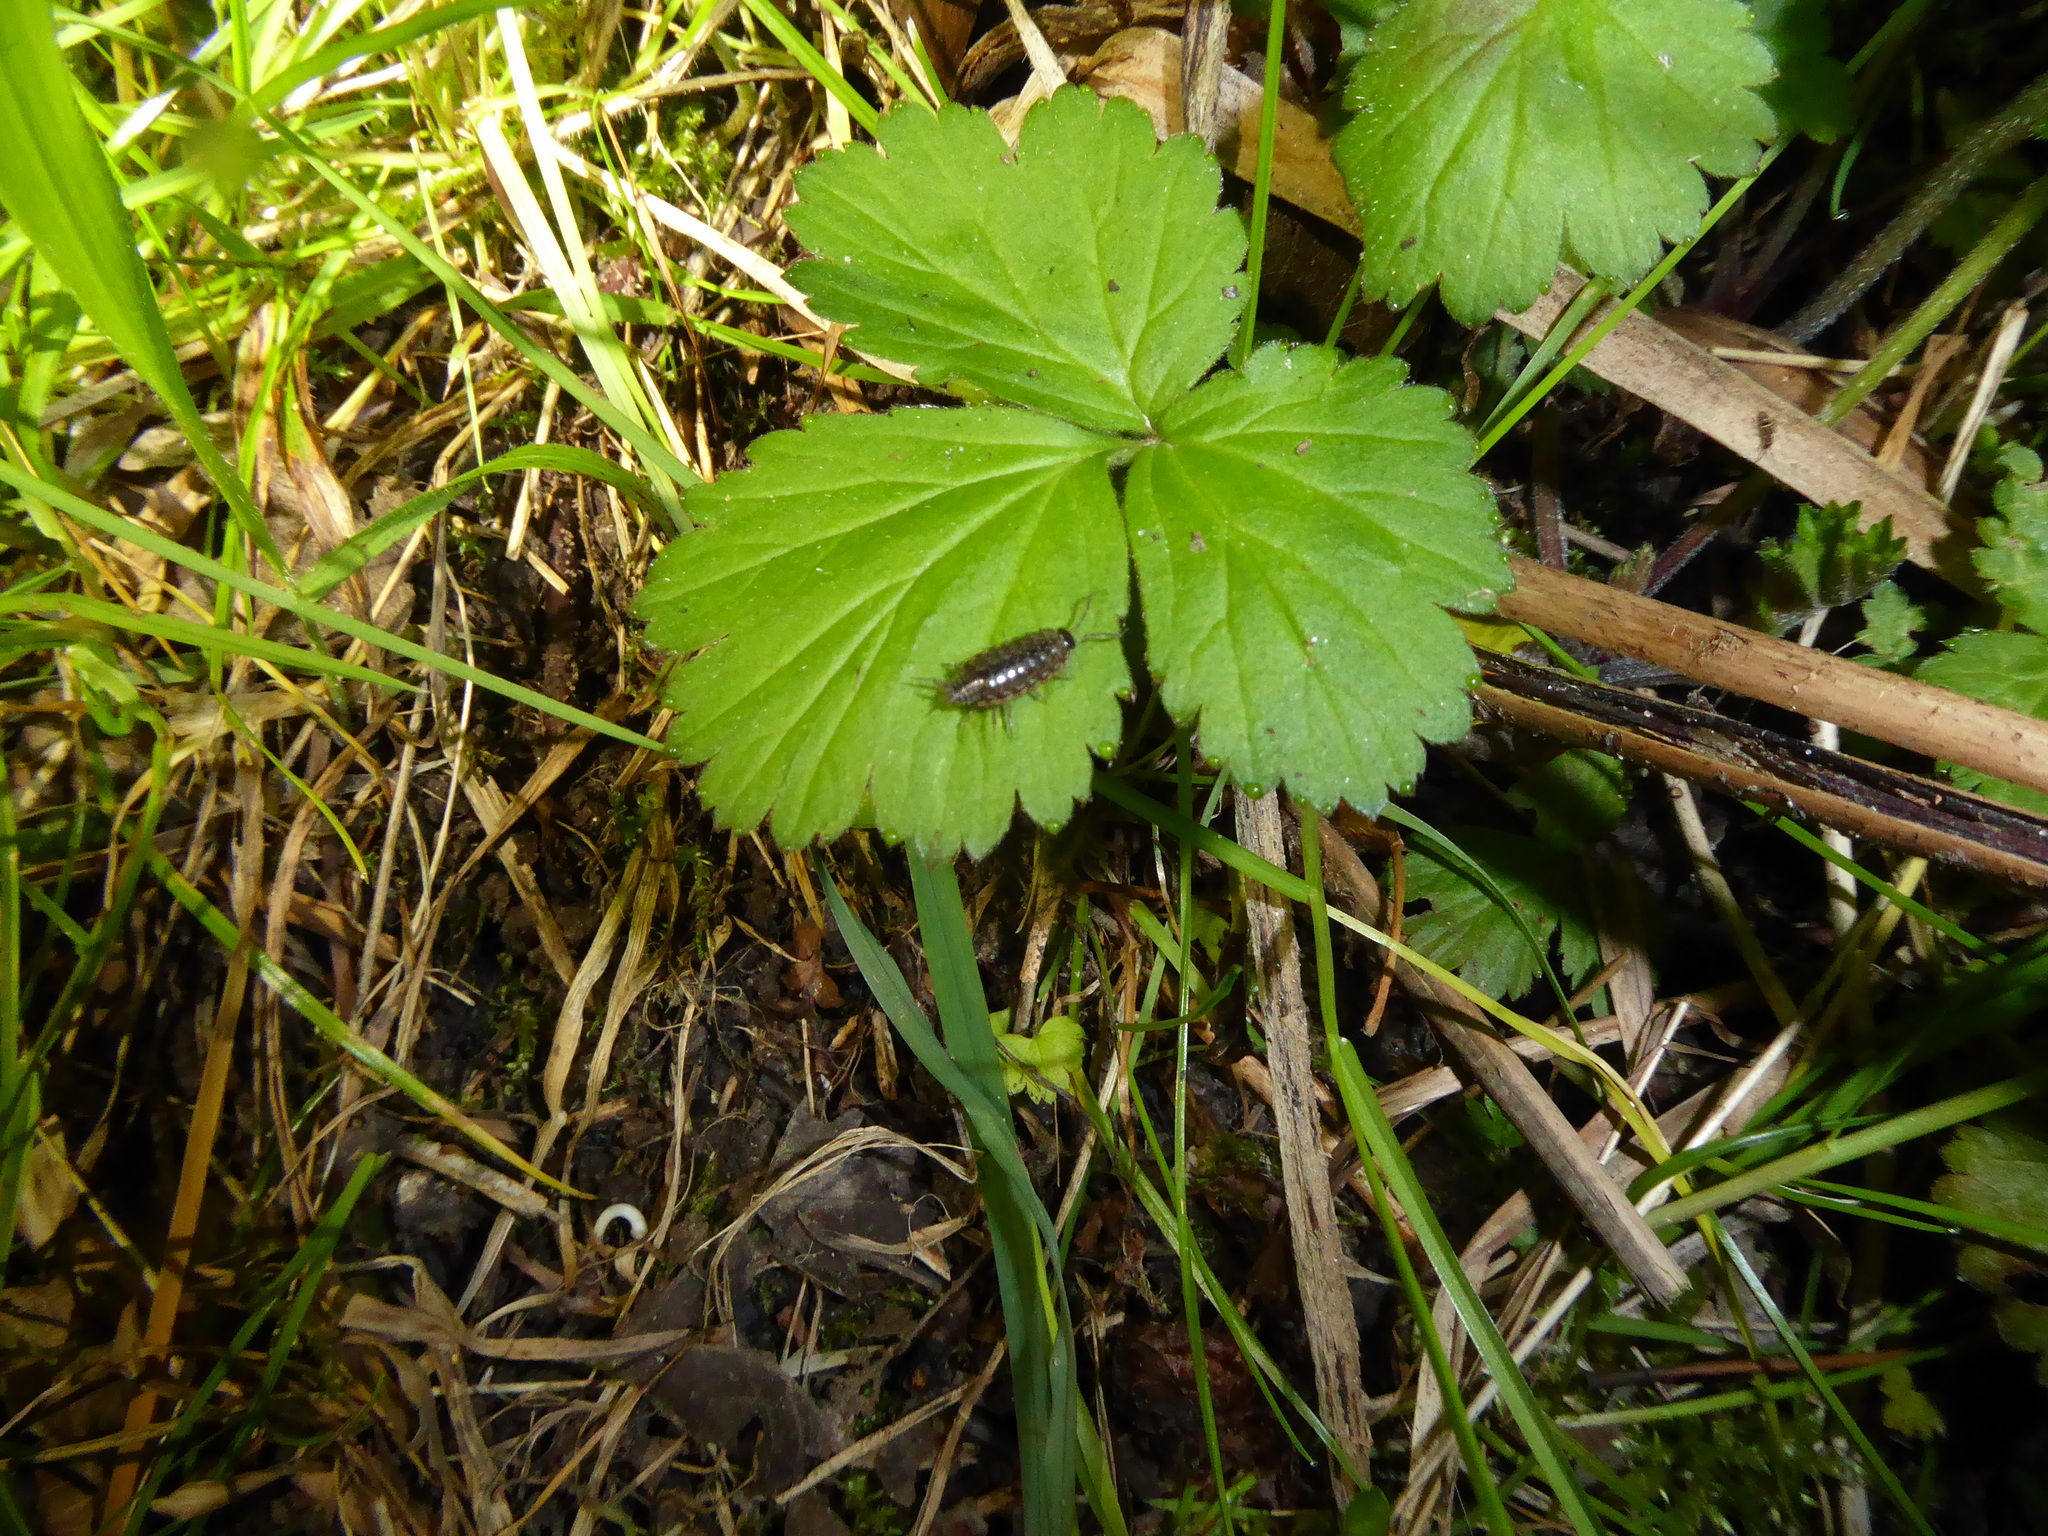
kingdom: Animalia
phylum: Arthropoda
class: Malacostraca
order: Isopoda
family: Philosciidae
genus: Philoscia
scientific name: Philoscia muscorum
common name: Common striped woodlouse
